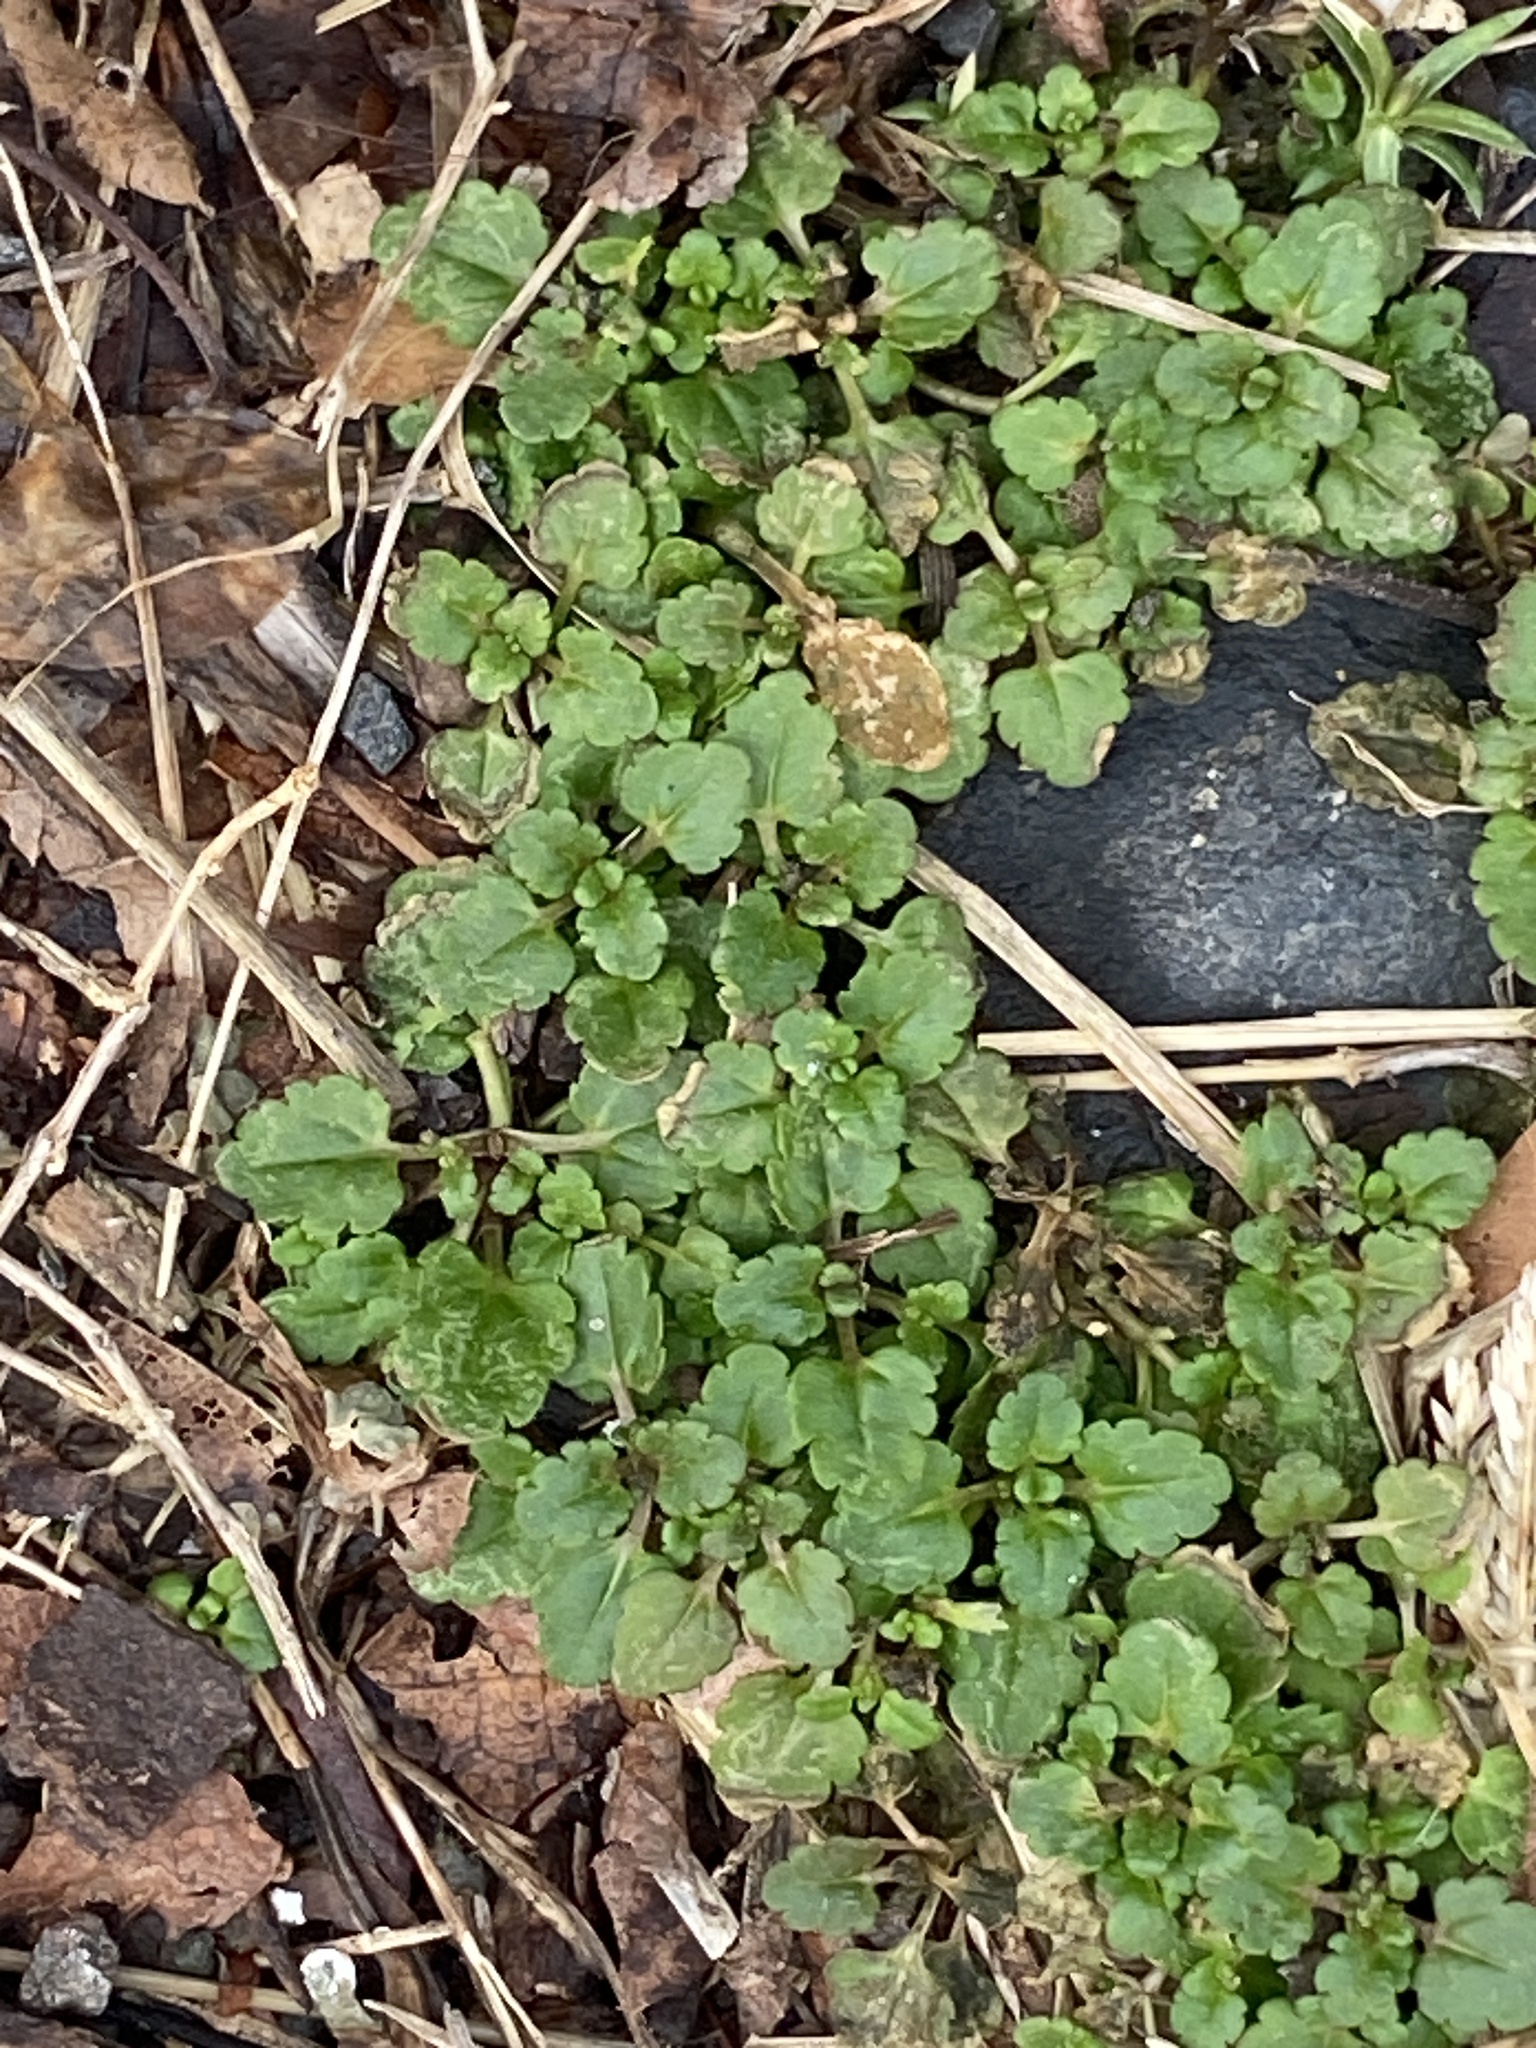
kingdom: Plantae
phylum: Tracheophyta
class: Magnoliopsida
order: Lamiales
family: Plantaginaceae
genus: Veronica
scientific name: Veronica persica
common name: Common field-speedwell
